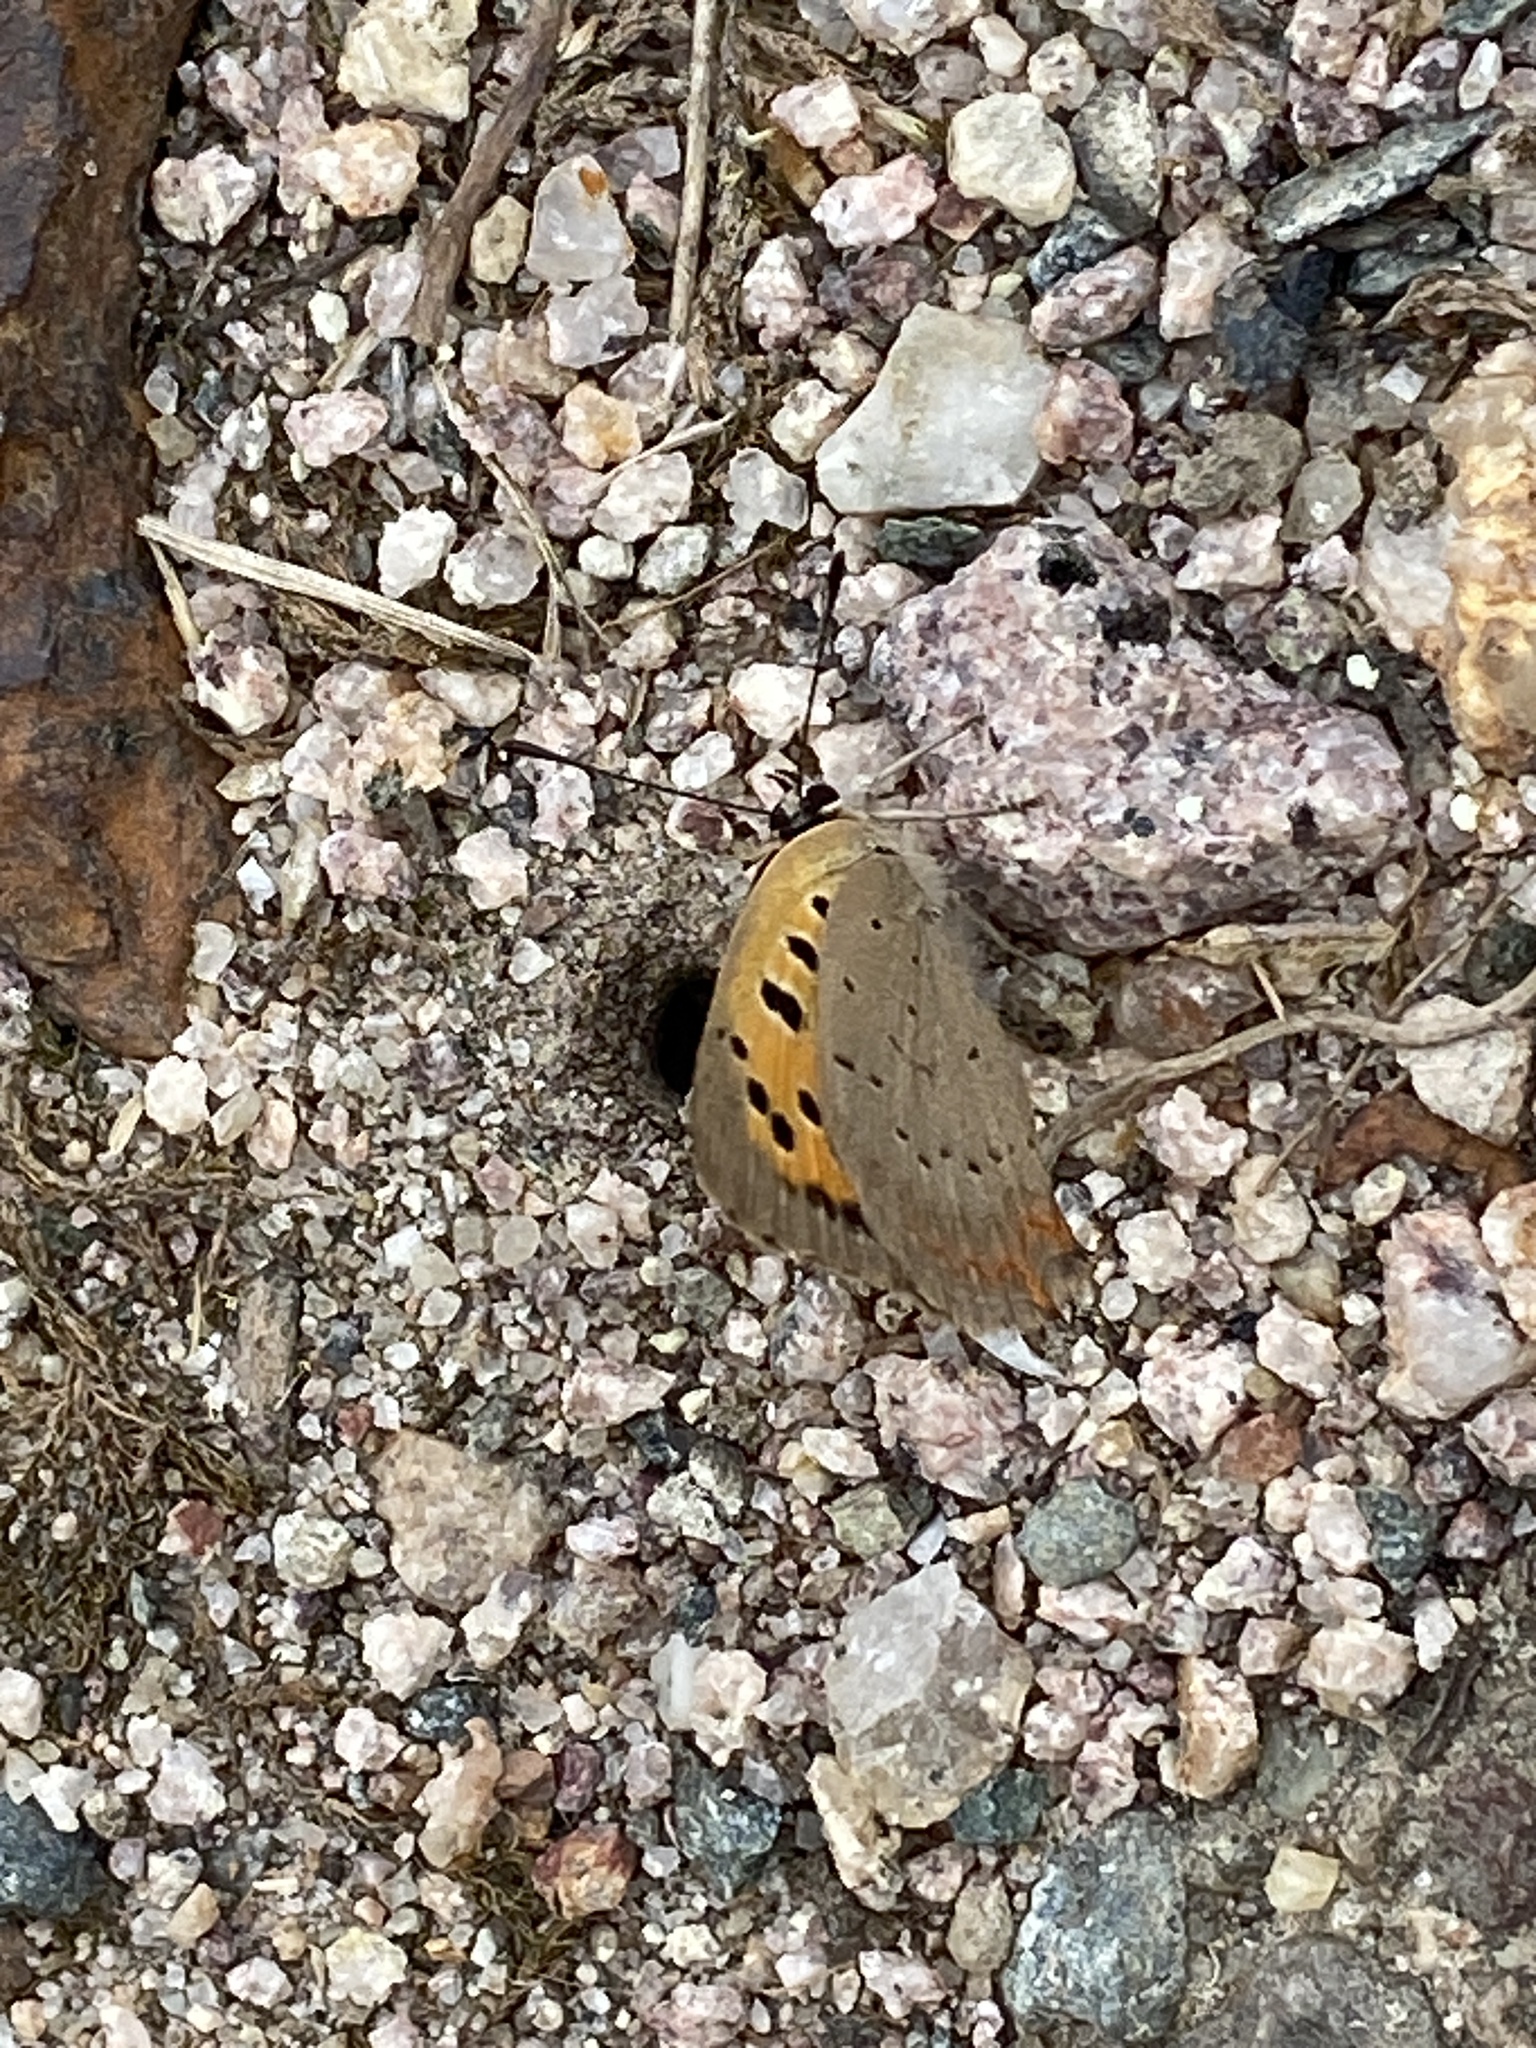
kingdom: Animalia
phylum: Arthropoda
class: Insecta
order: Lepidoptera
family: Lycaenidae
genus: Lycaena
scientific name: Lycaena phlaeas
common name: Small copper
